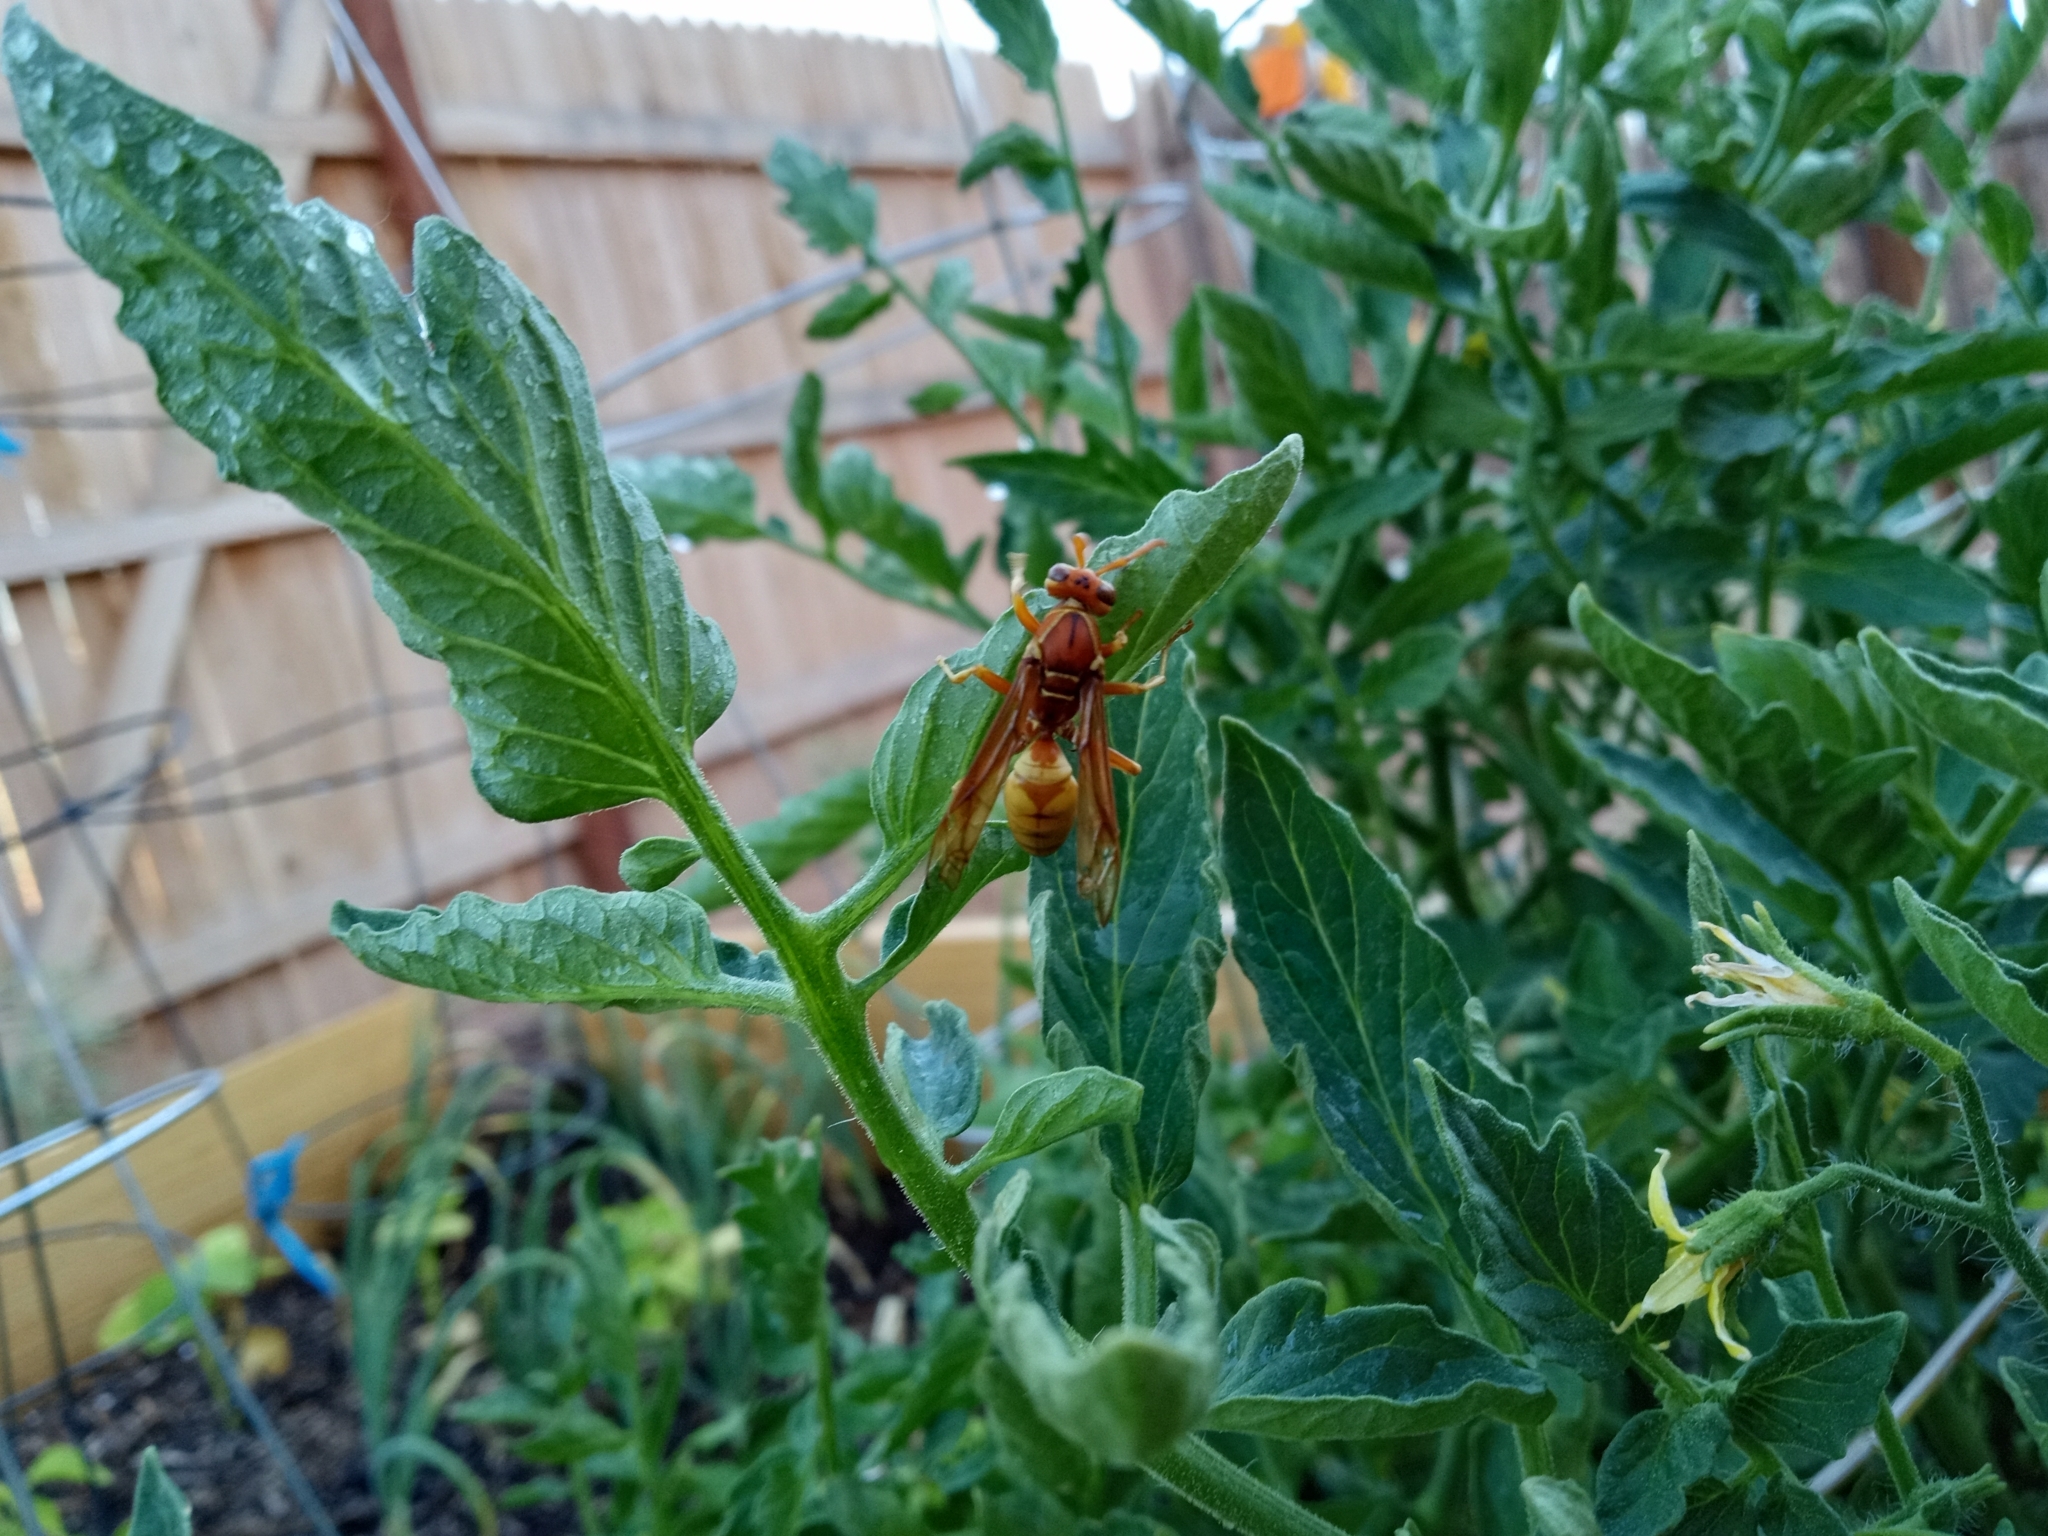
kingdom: Animalia
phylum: Arthropoda
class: Insecta
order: Hymenoptera
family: Eumenidae
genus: Polistes
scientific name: Polistes aurifer
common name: Paper wasp
